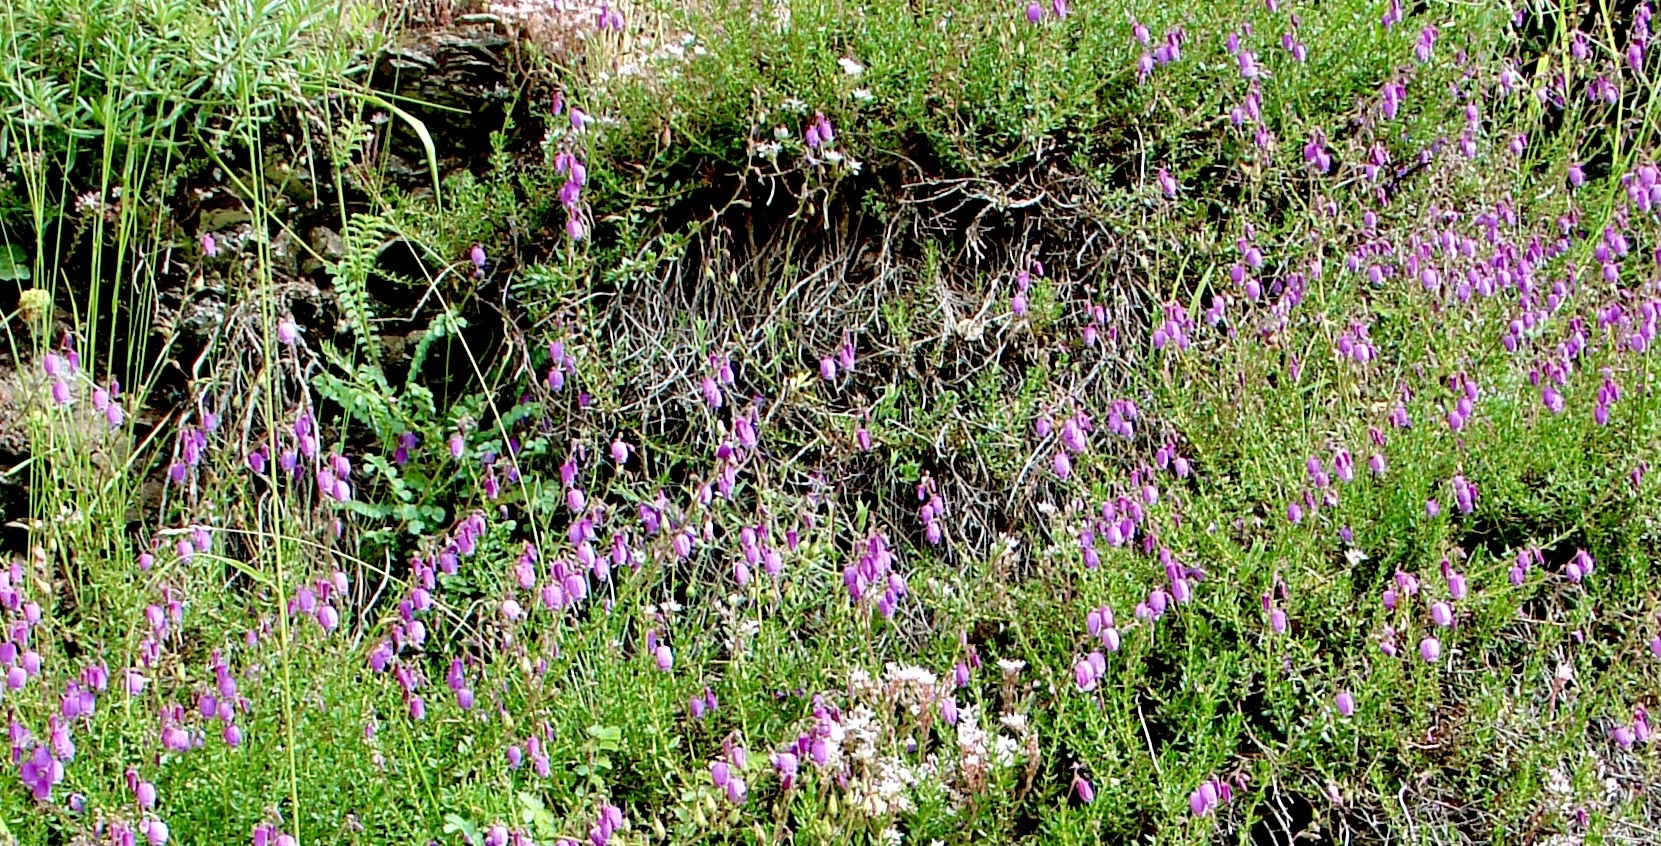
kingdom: Plantae
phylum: Tracheophyta
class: Magnoliopsida
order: Ericales
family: Ericaceae
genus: Daboecia
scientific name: Daboecia cantabrica
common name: St. dabeoc's-heath
